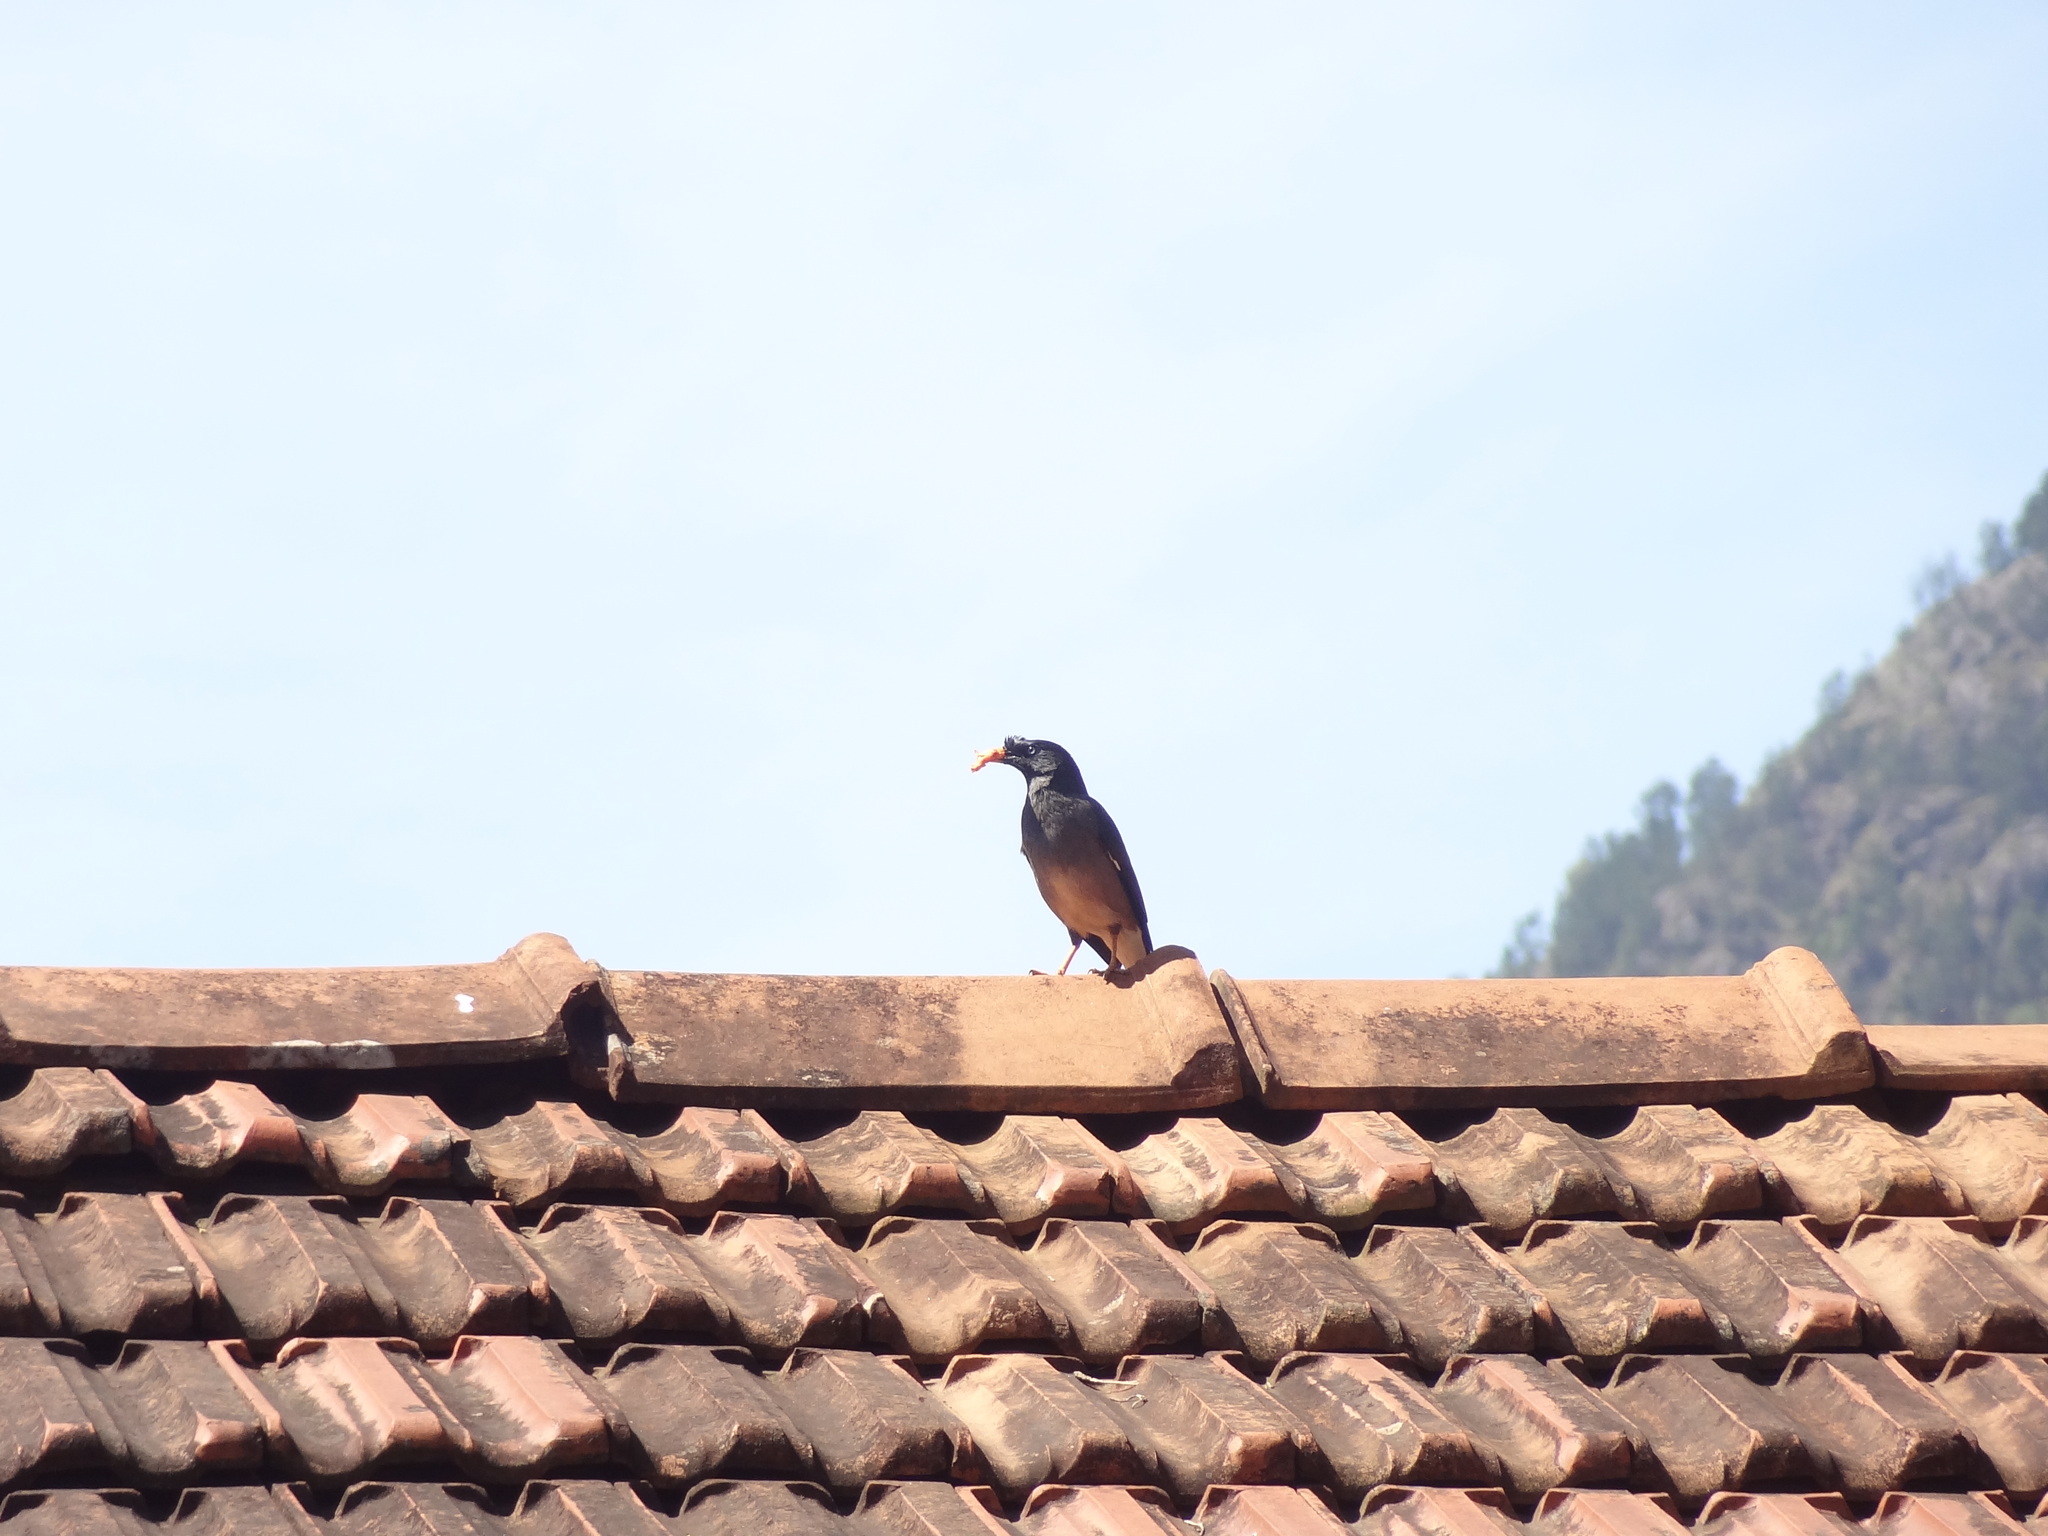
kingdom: Animalia
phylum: Chordata
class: Aves
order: Passeriformes
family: Sturnidae
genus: Acridotheres
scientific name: Acridotheres fuscus
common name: Jungle myna
